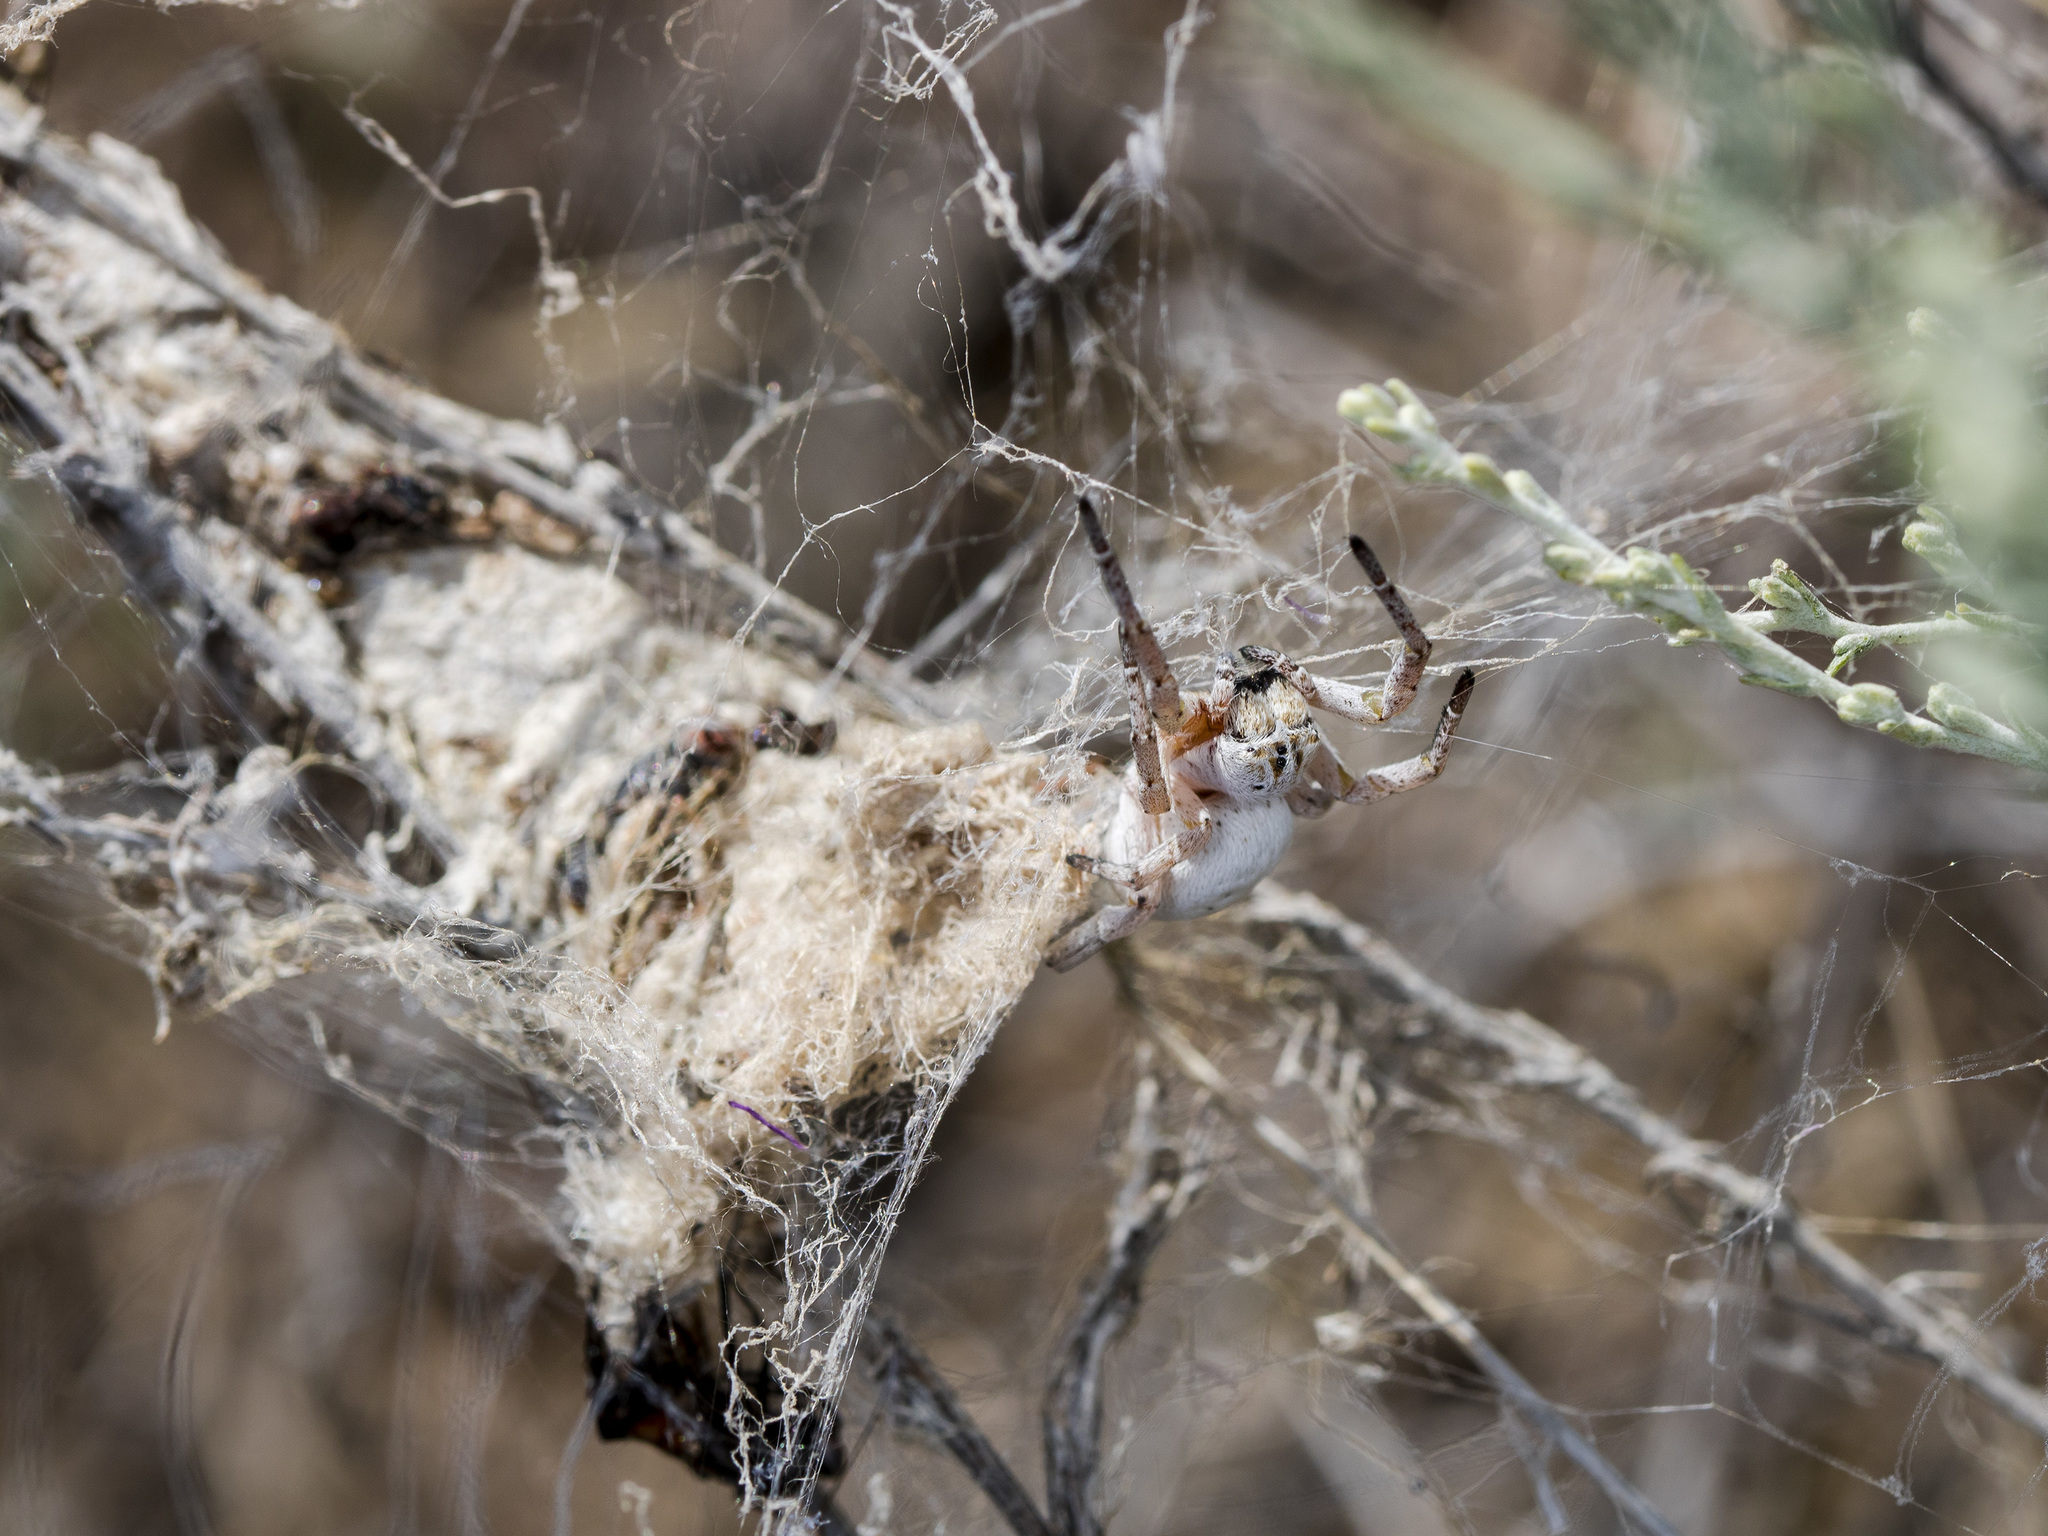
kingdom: Animalia
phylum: Arthropoda
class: Arachnida
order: Araneae
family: Eresidae
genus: Stegodyphus
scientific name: Stegodyphus lineatus
